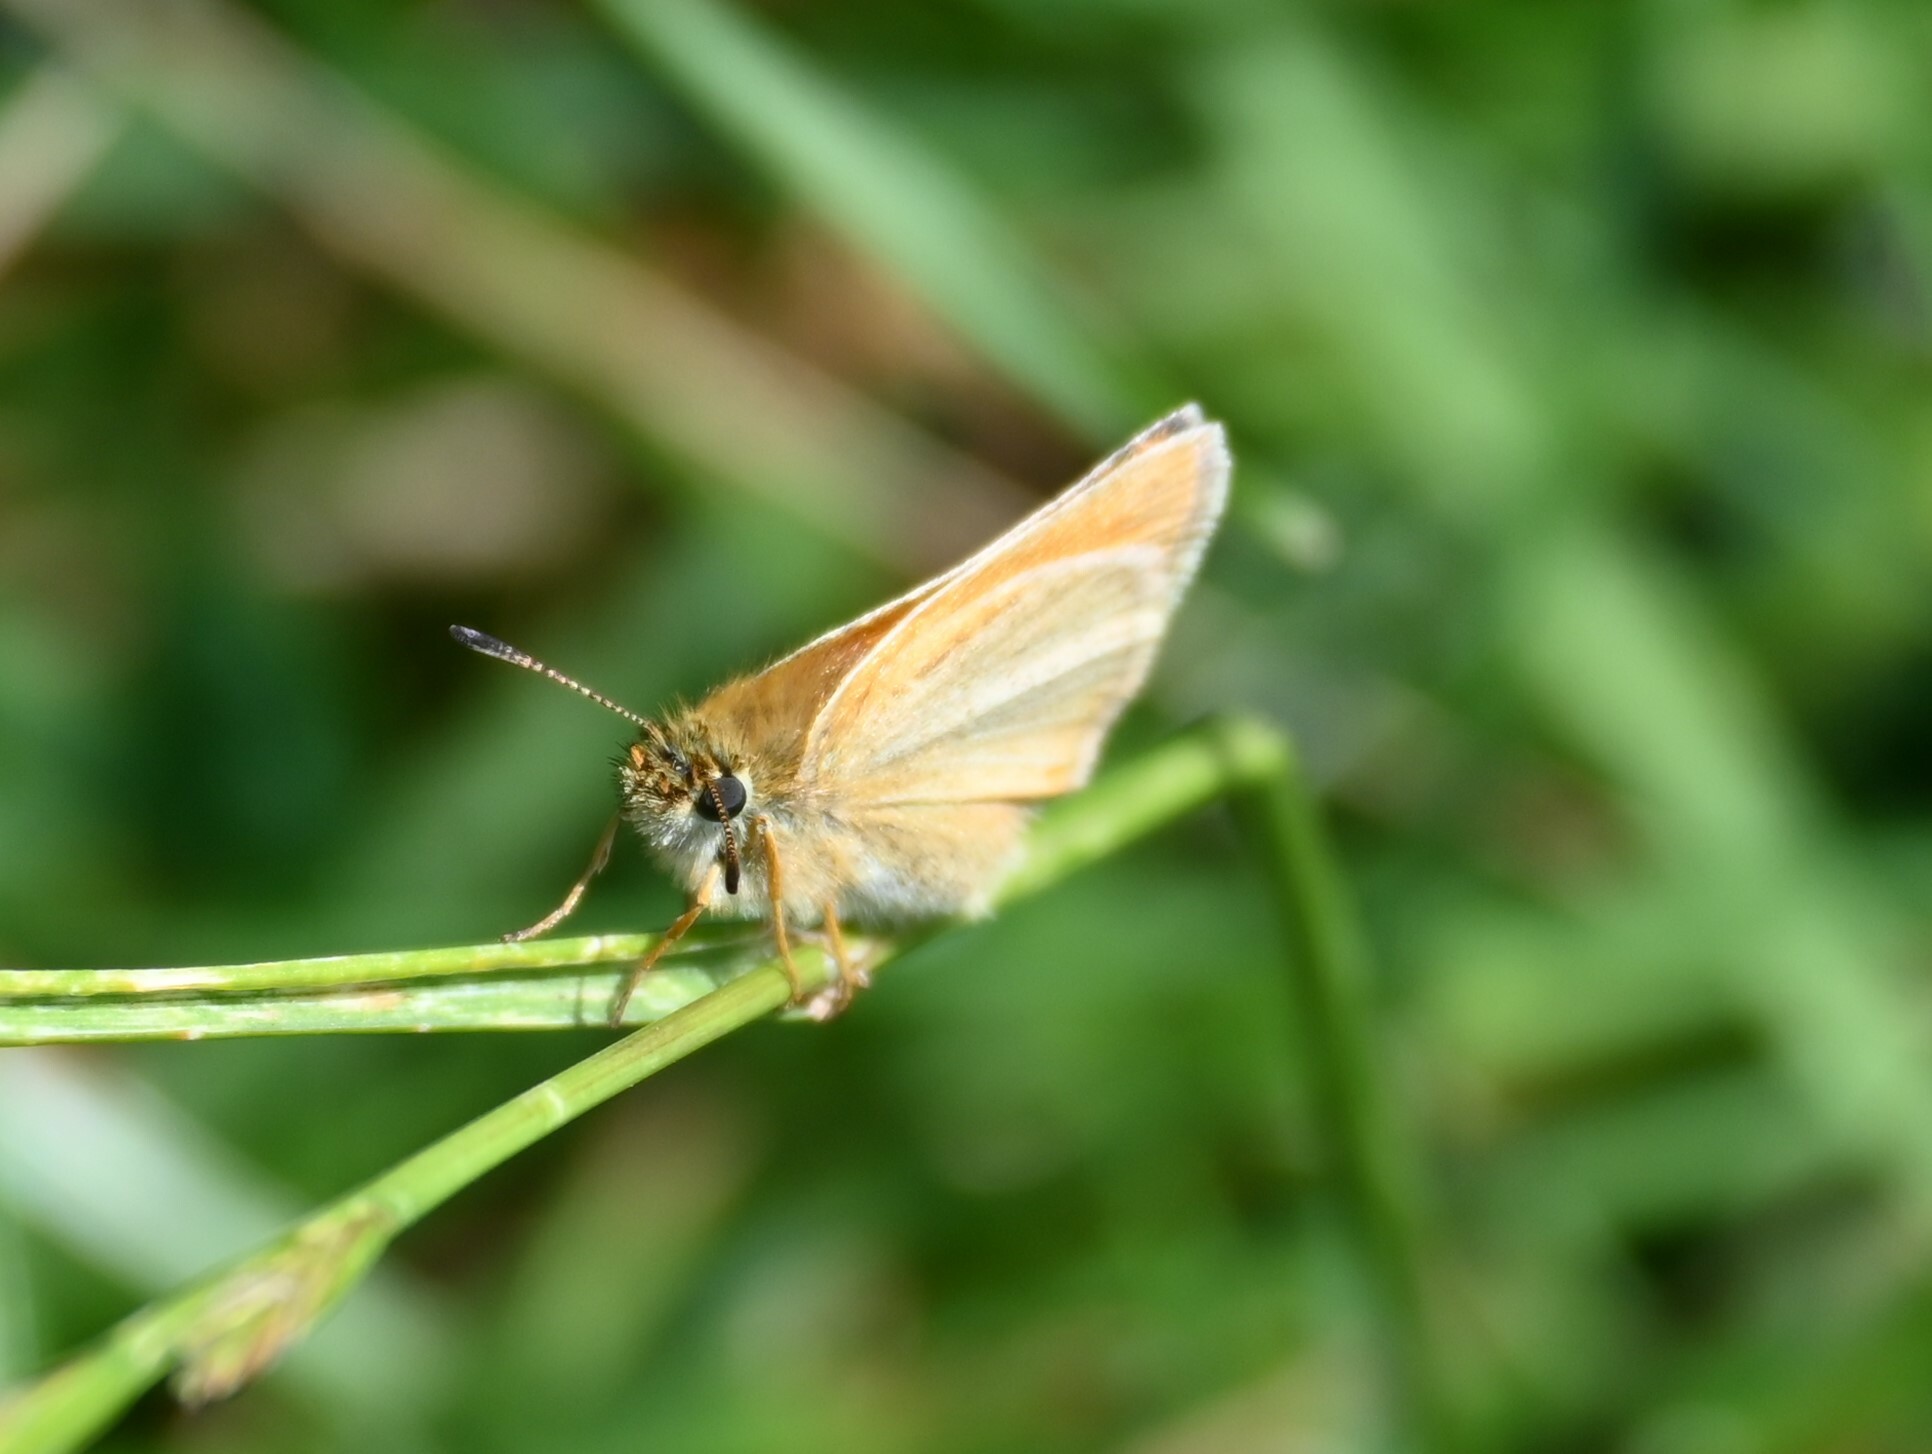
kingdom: Animalia
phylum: Arthropoda
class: Insecta
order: Lepidoptera
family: Hesperiidae
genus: Thymelicus
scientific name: Thymelicus lineola
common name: Essex skipper
